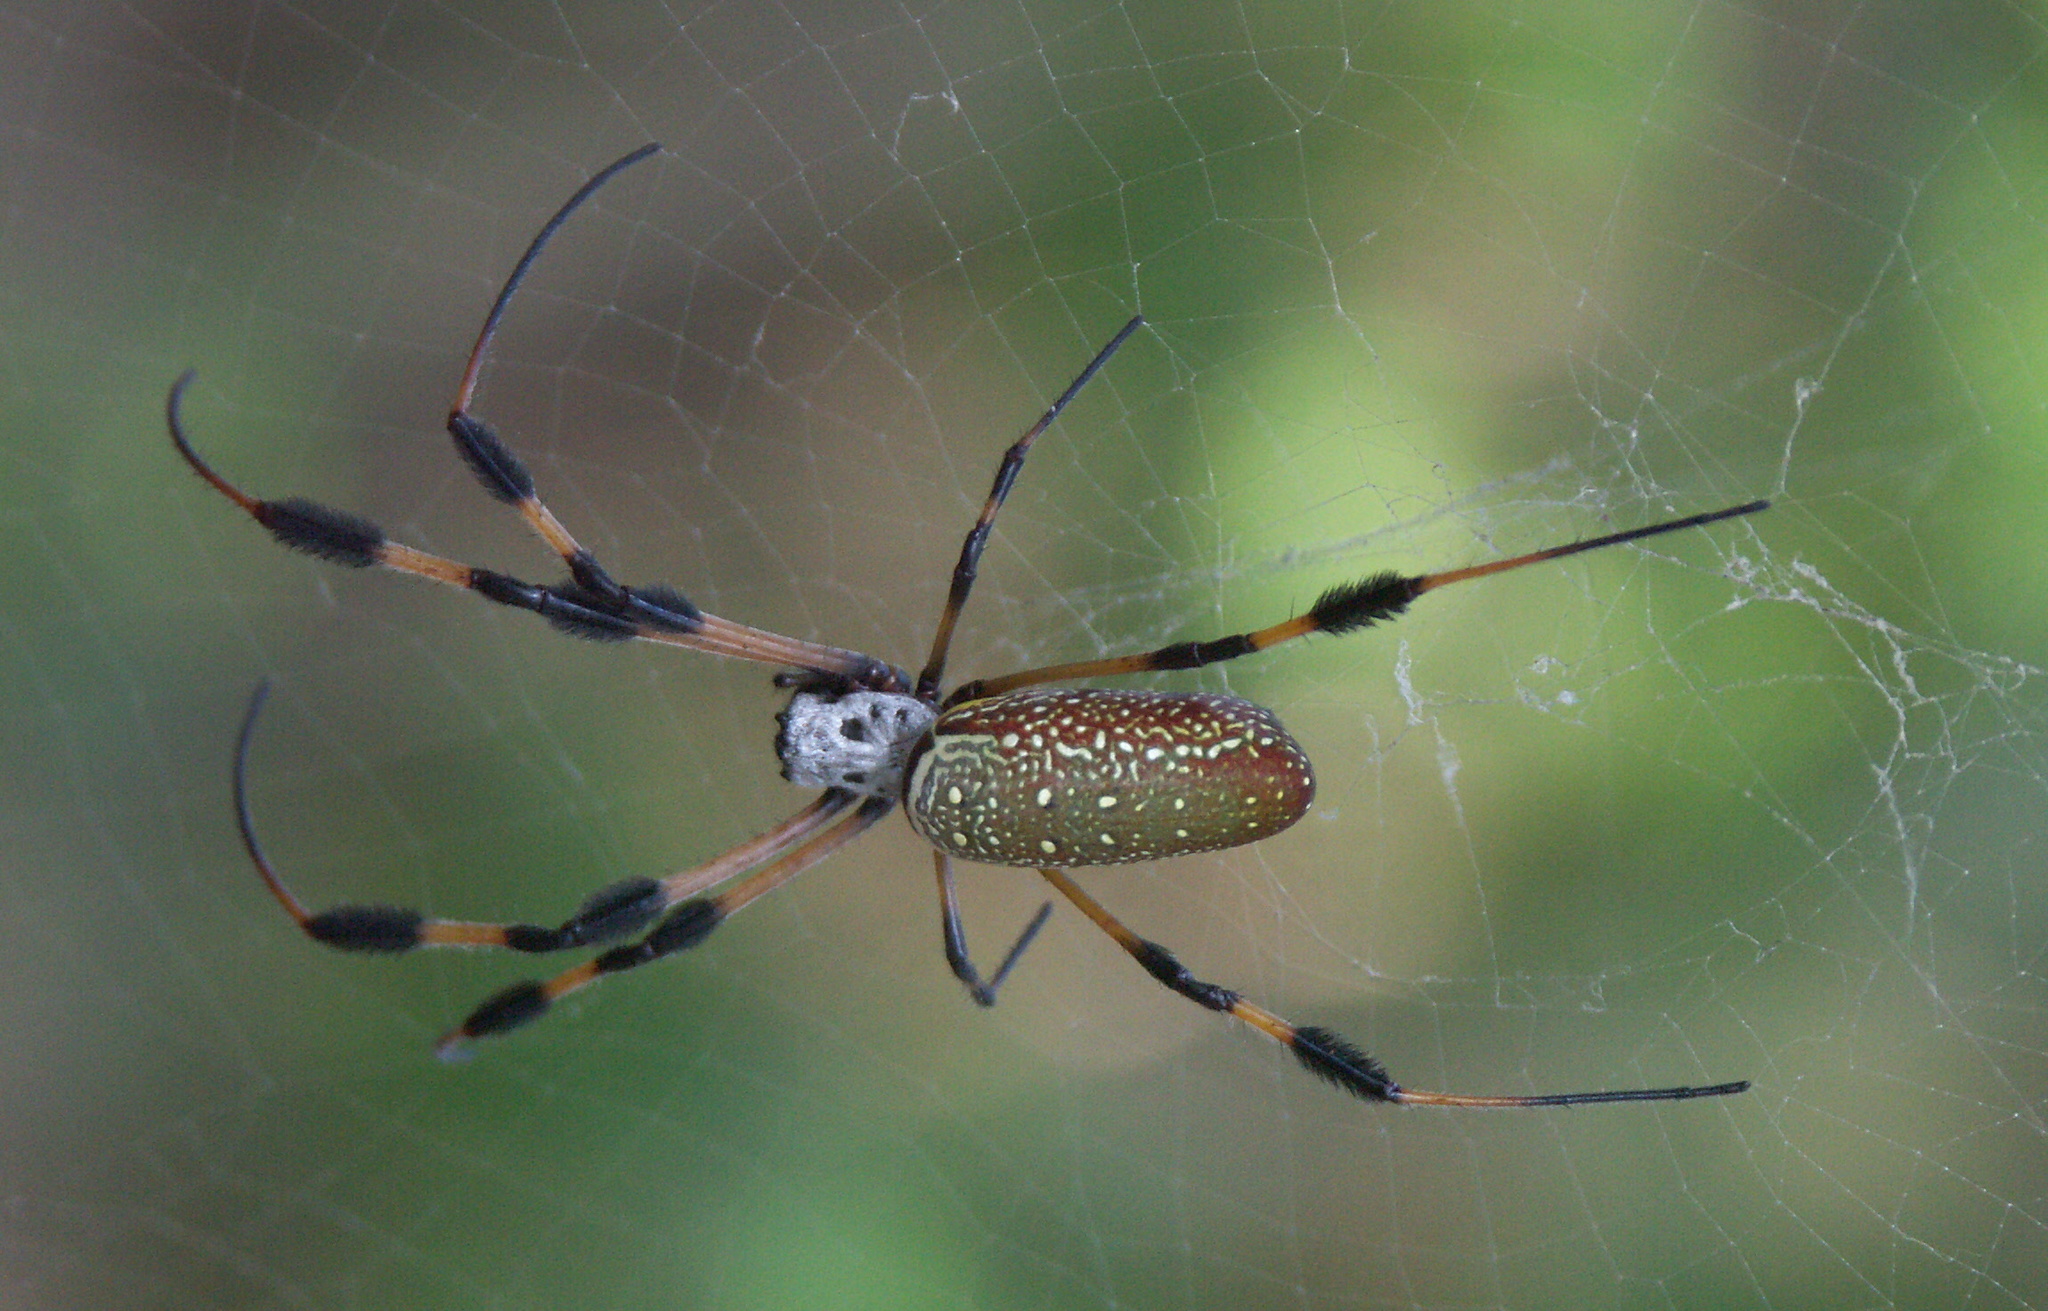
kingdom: Animalia
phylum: Arthropoda
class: Arachnida
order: Araneae
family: Araneidae
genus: Trichonephila
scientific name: Trichonephila clavipes
